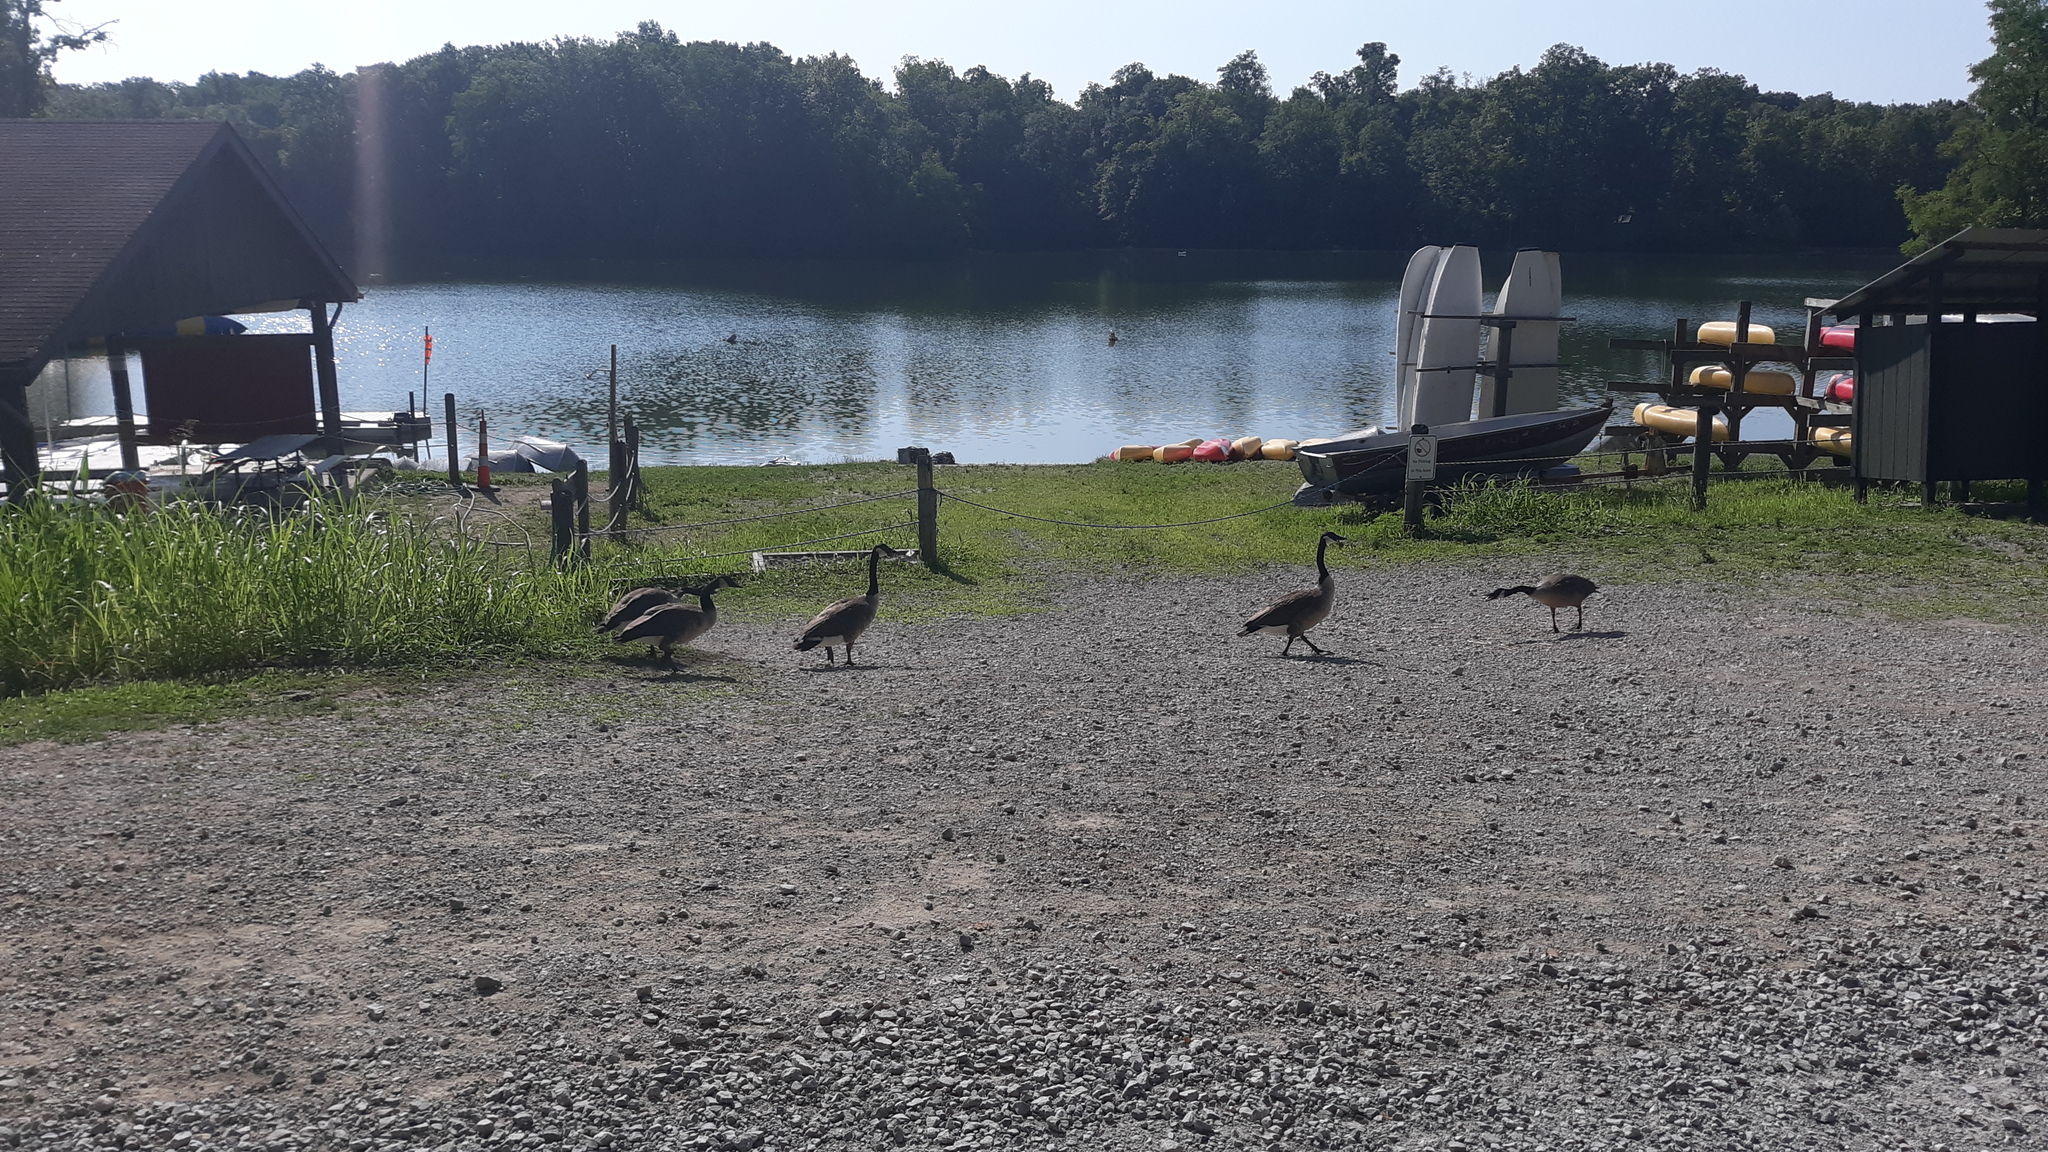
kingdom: Animalia
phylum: Chordata
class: Aves
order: Anseriformes
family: Anatidae
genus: Branta
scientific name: Branta canadensis
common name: Canada goose
